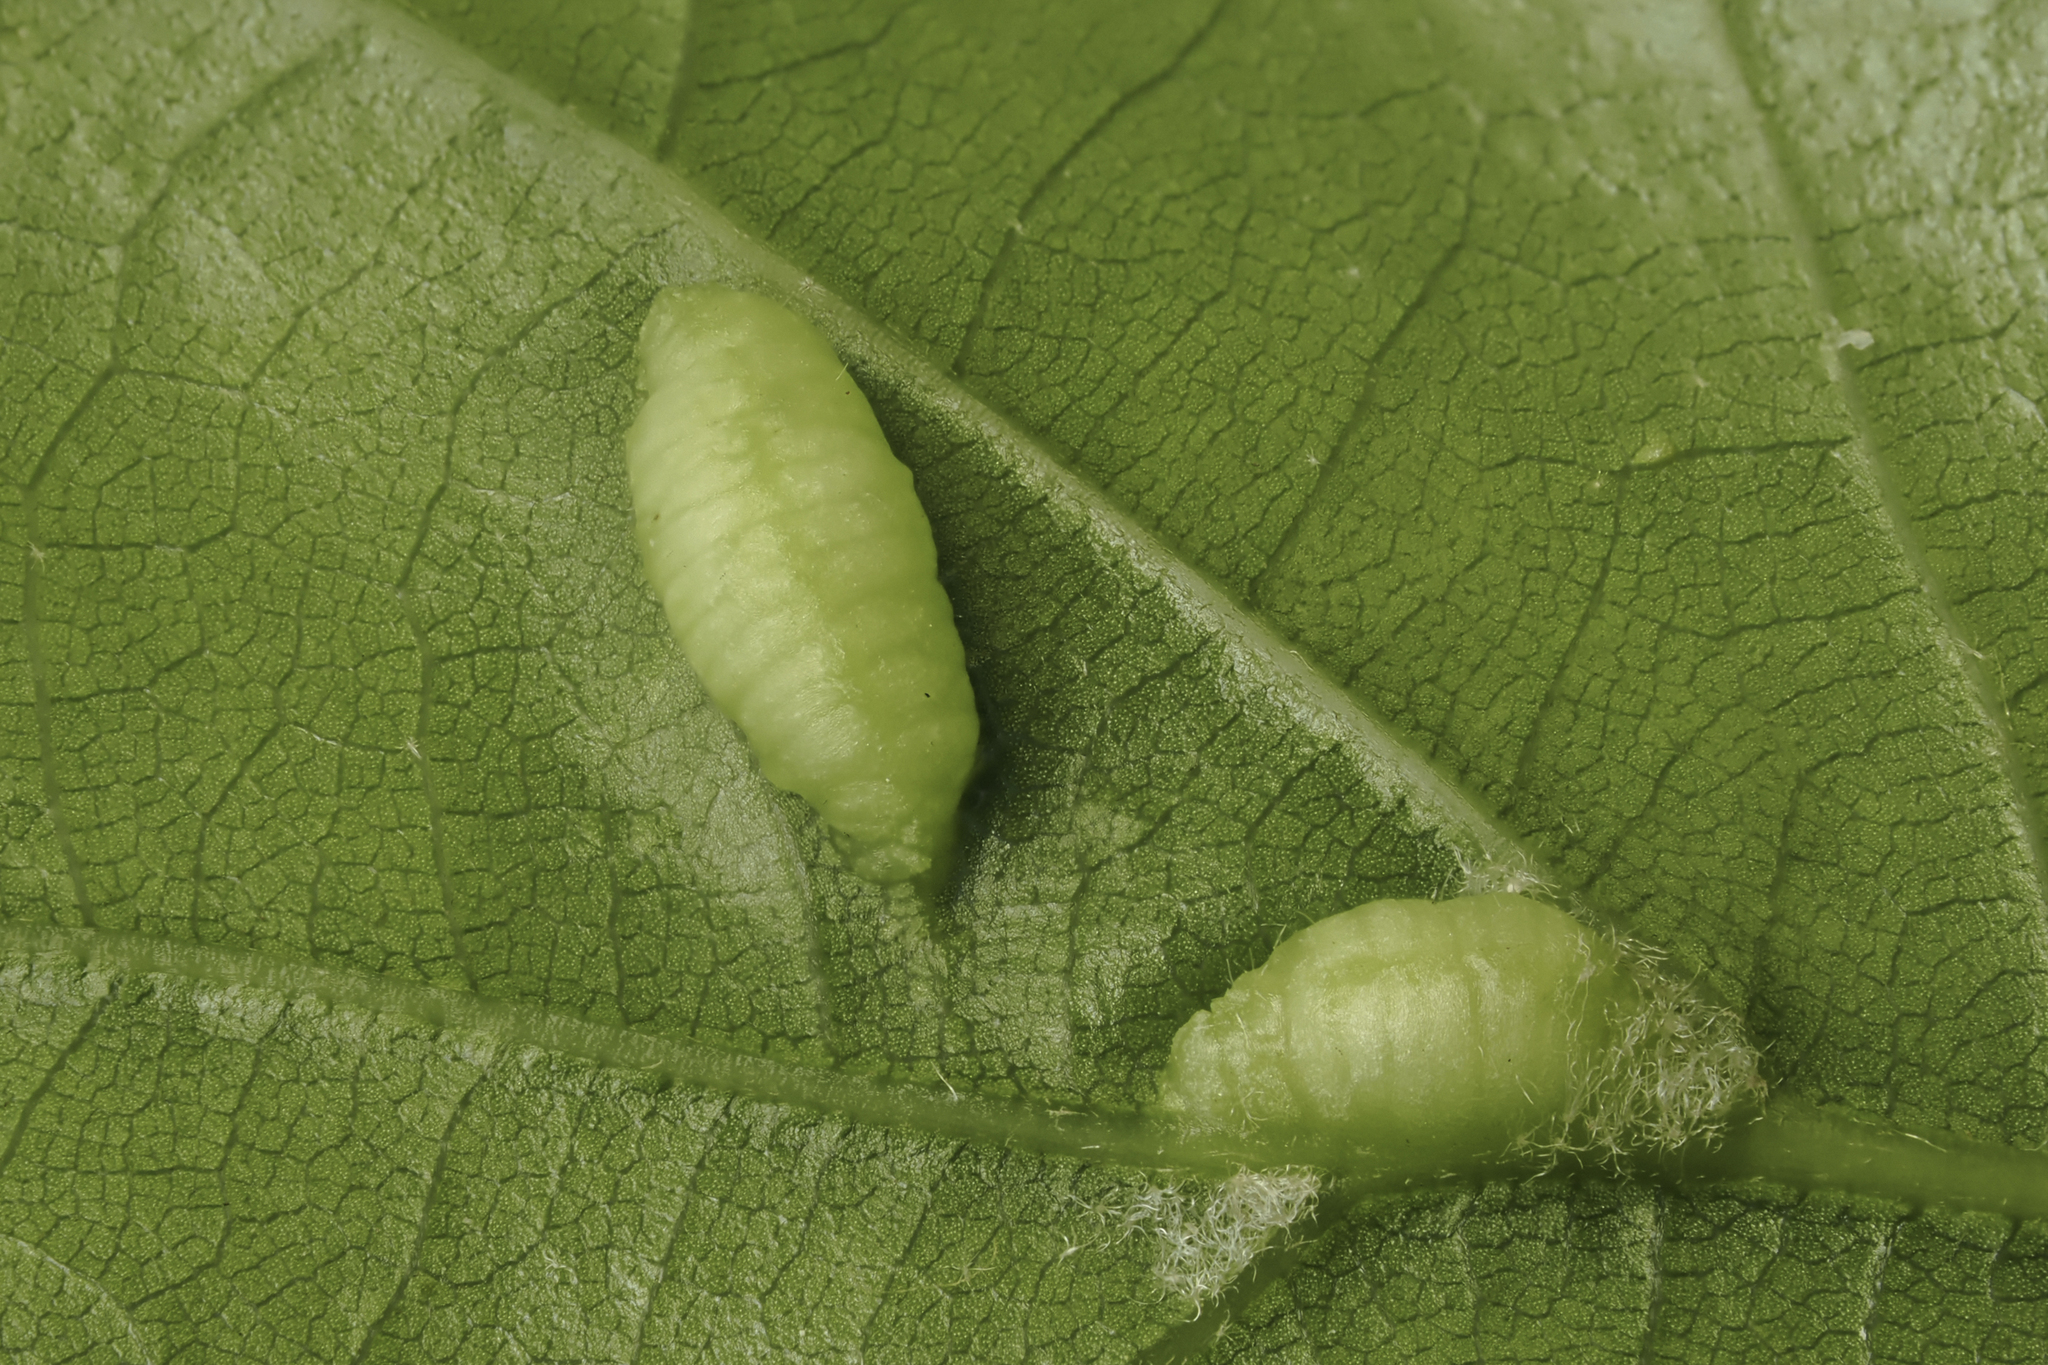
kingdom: Animalia
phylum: Arthropoda
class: Insecta
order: Diptera
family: Cecidomyiidae
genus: Macrodiplosis
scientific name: Macrodiplosis majalis
